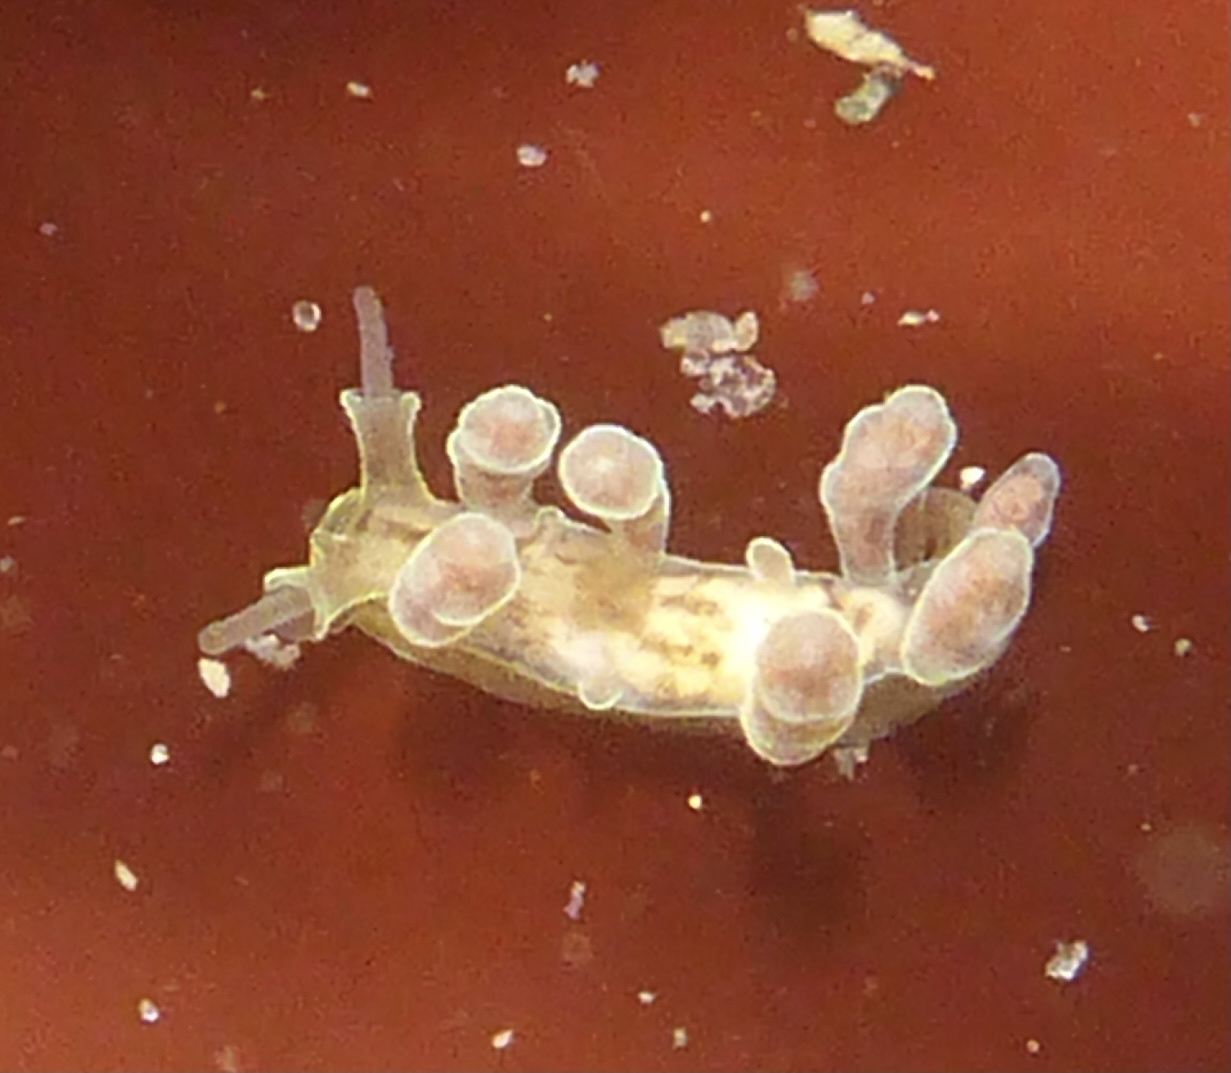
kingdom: Animalia
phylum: Mollusca
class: Gastropoda
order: Nudibranchia
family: Dotidae
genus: Doto
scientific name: Doto columbiana
